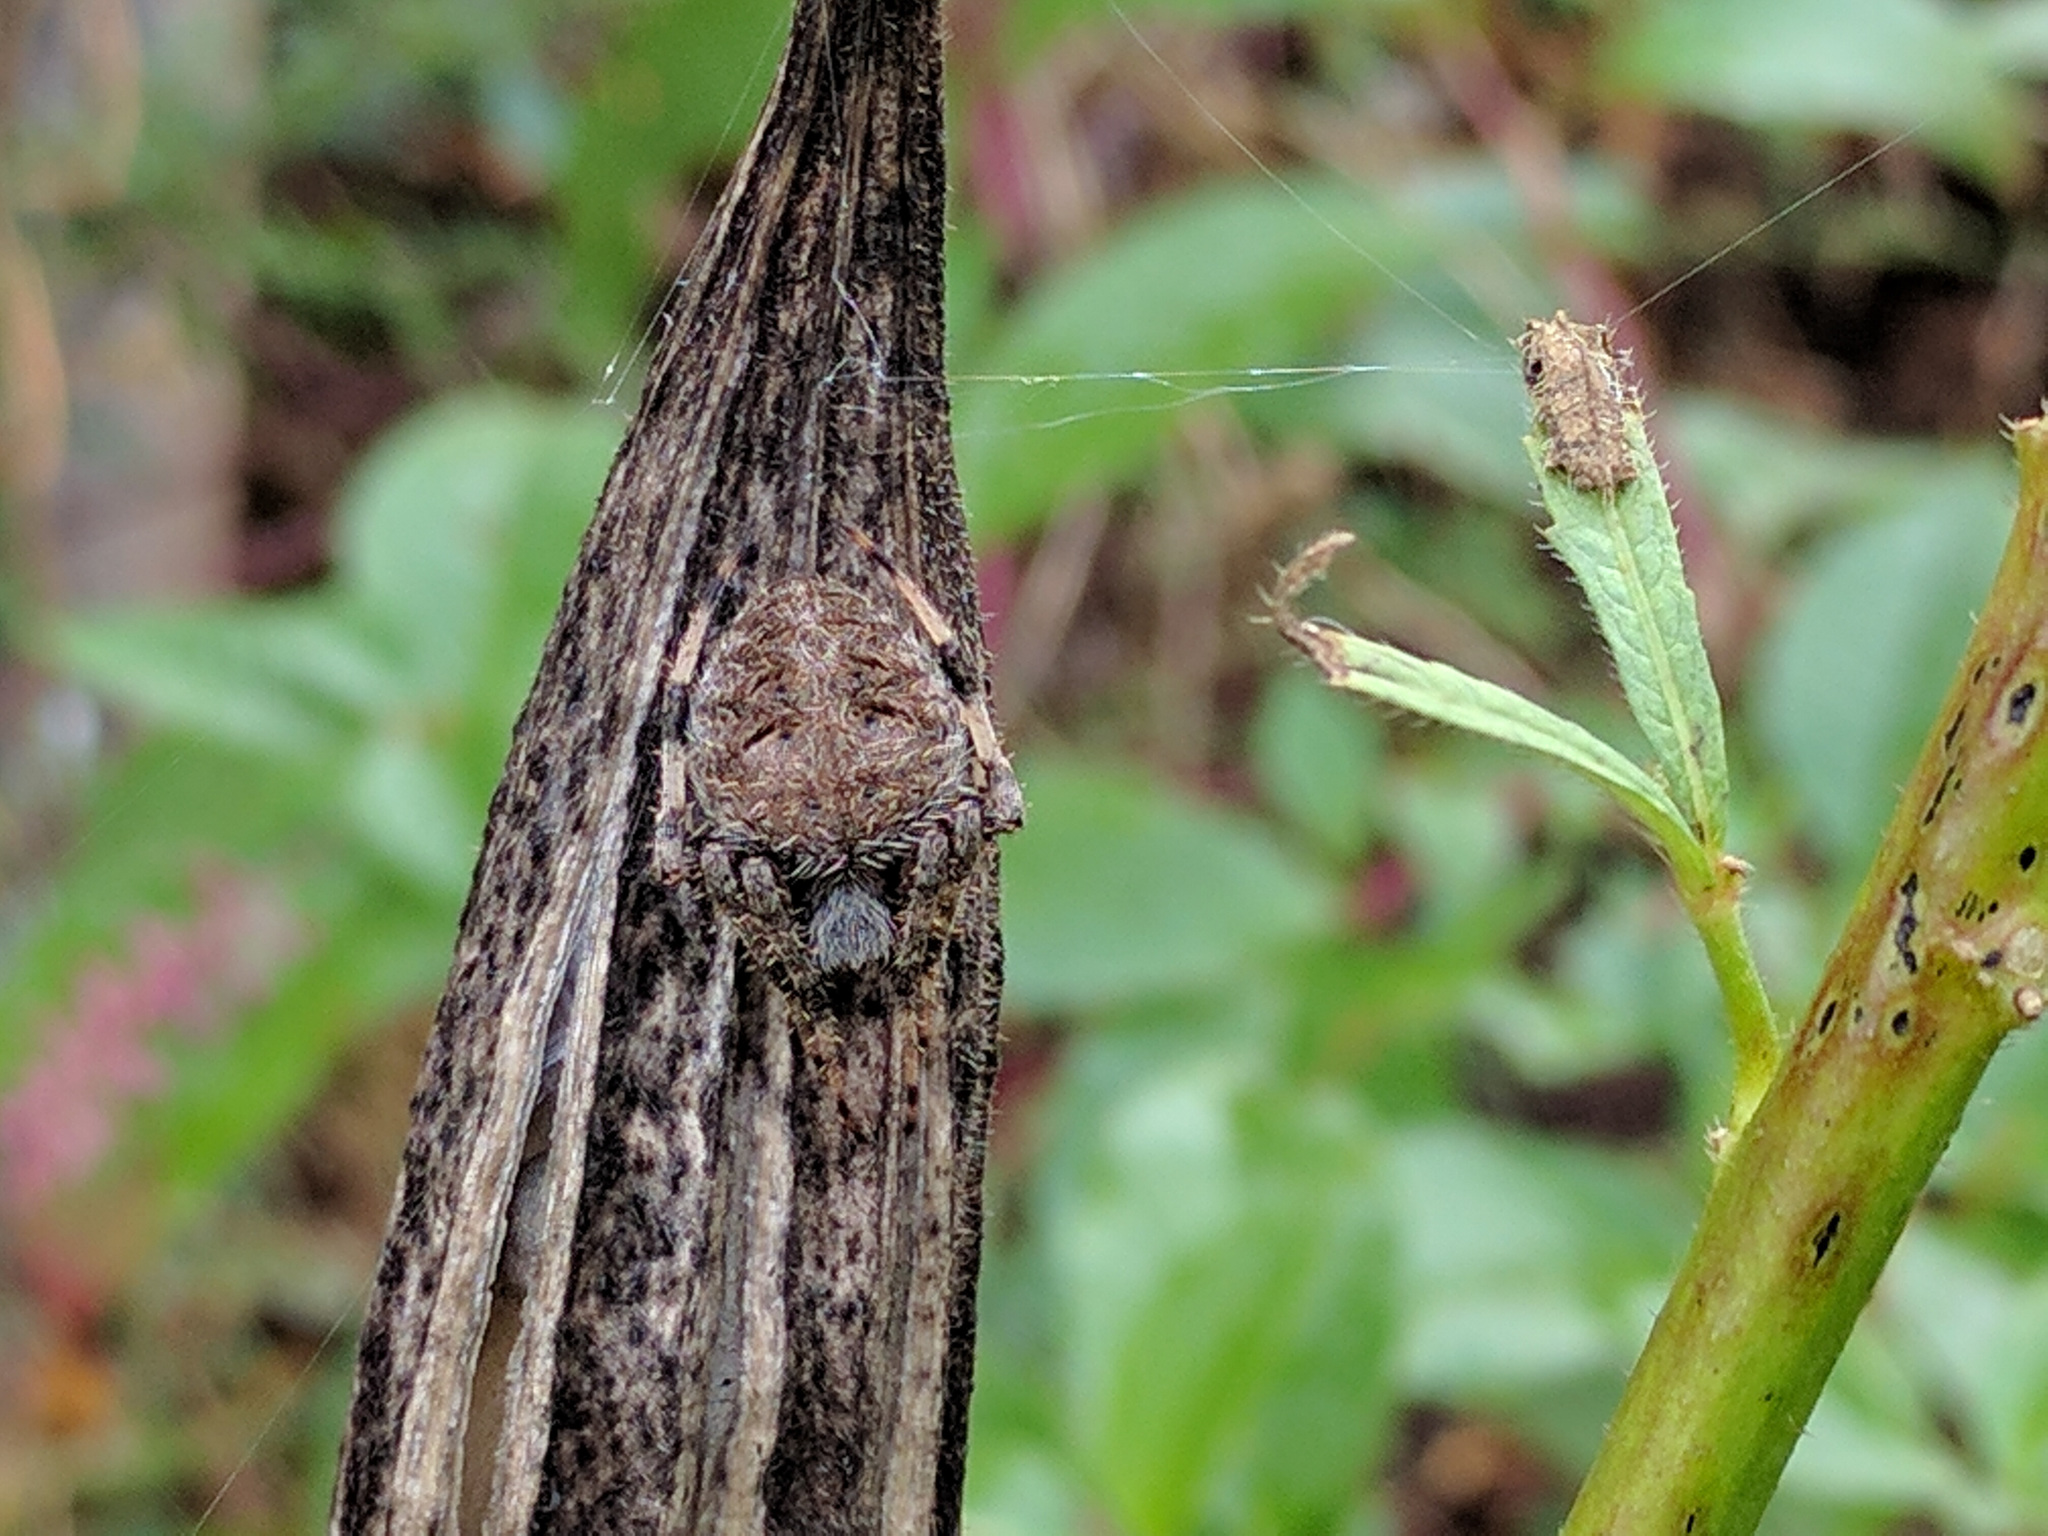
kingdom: Animalia
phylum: Arthropoda
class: Arachnida
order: Araneae
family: Araneidae
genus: Neoscona
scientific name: Neoscona crucifera
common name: Spotted orbweaver
